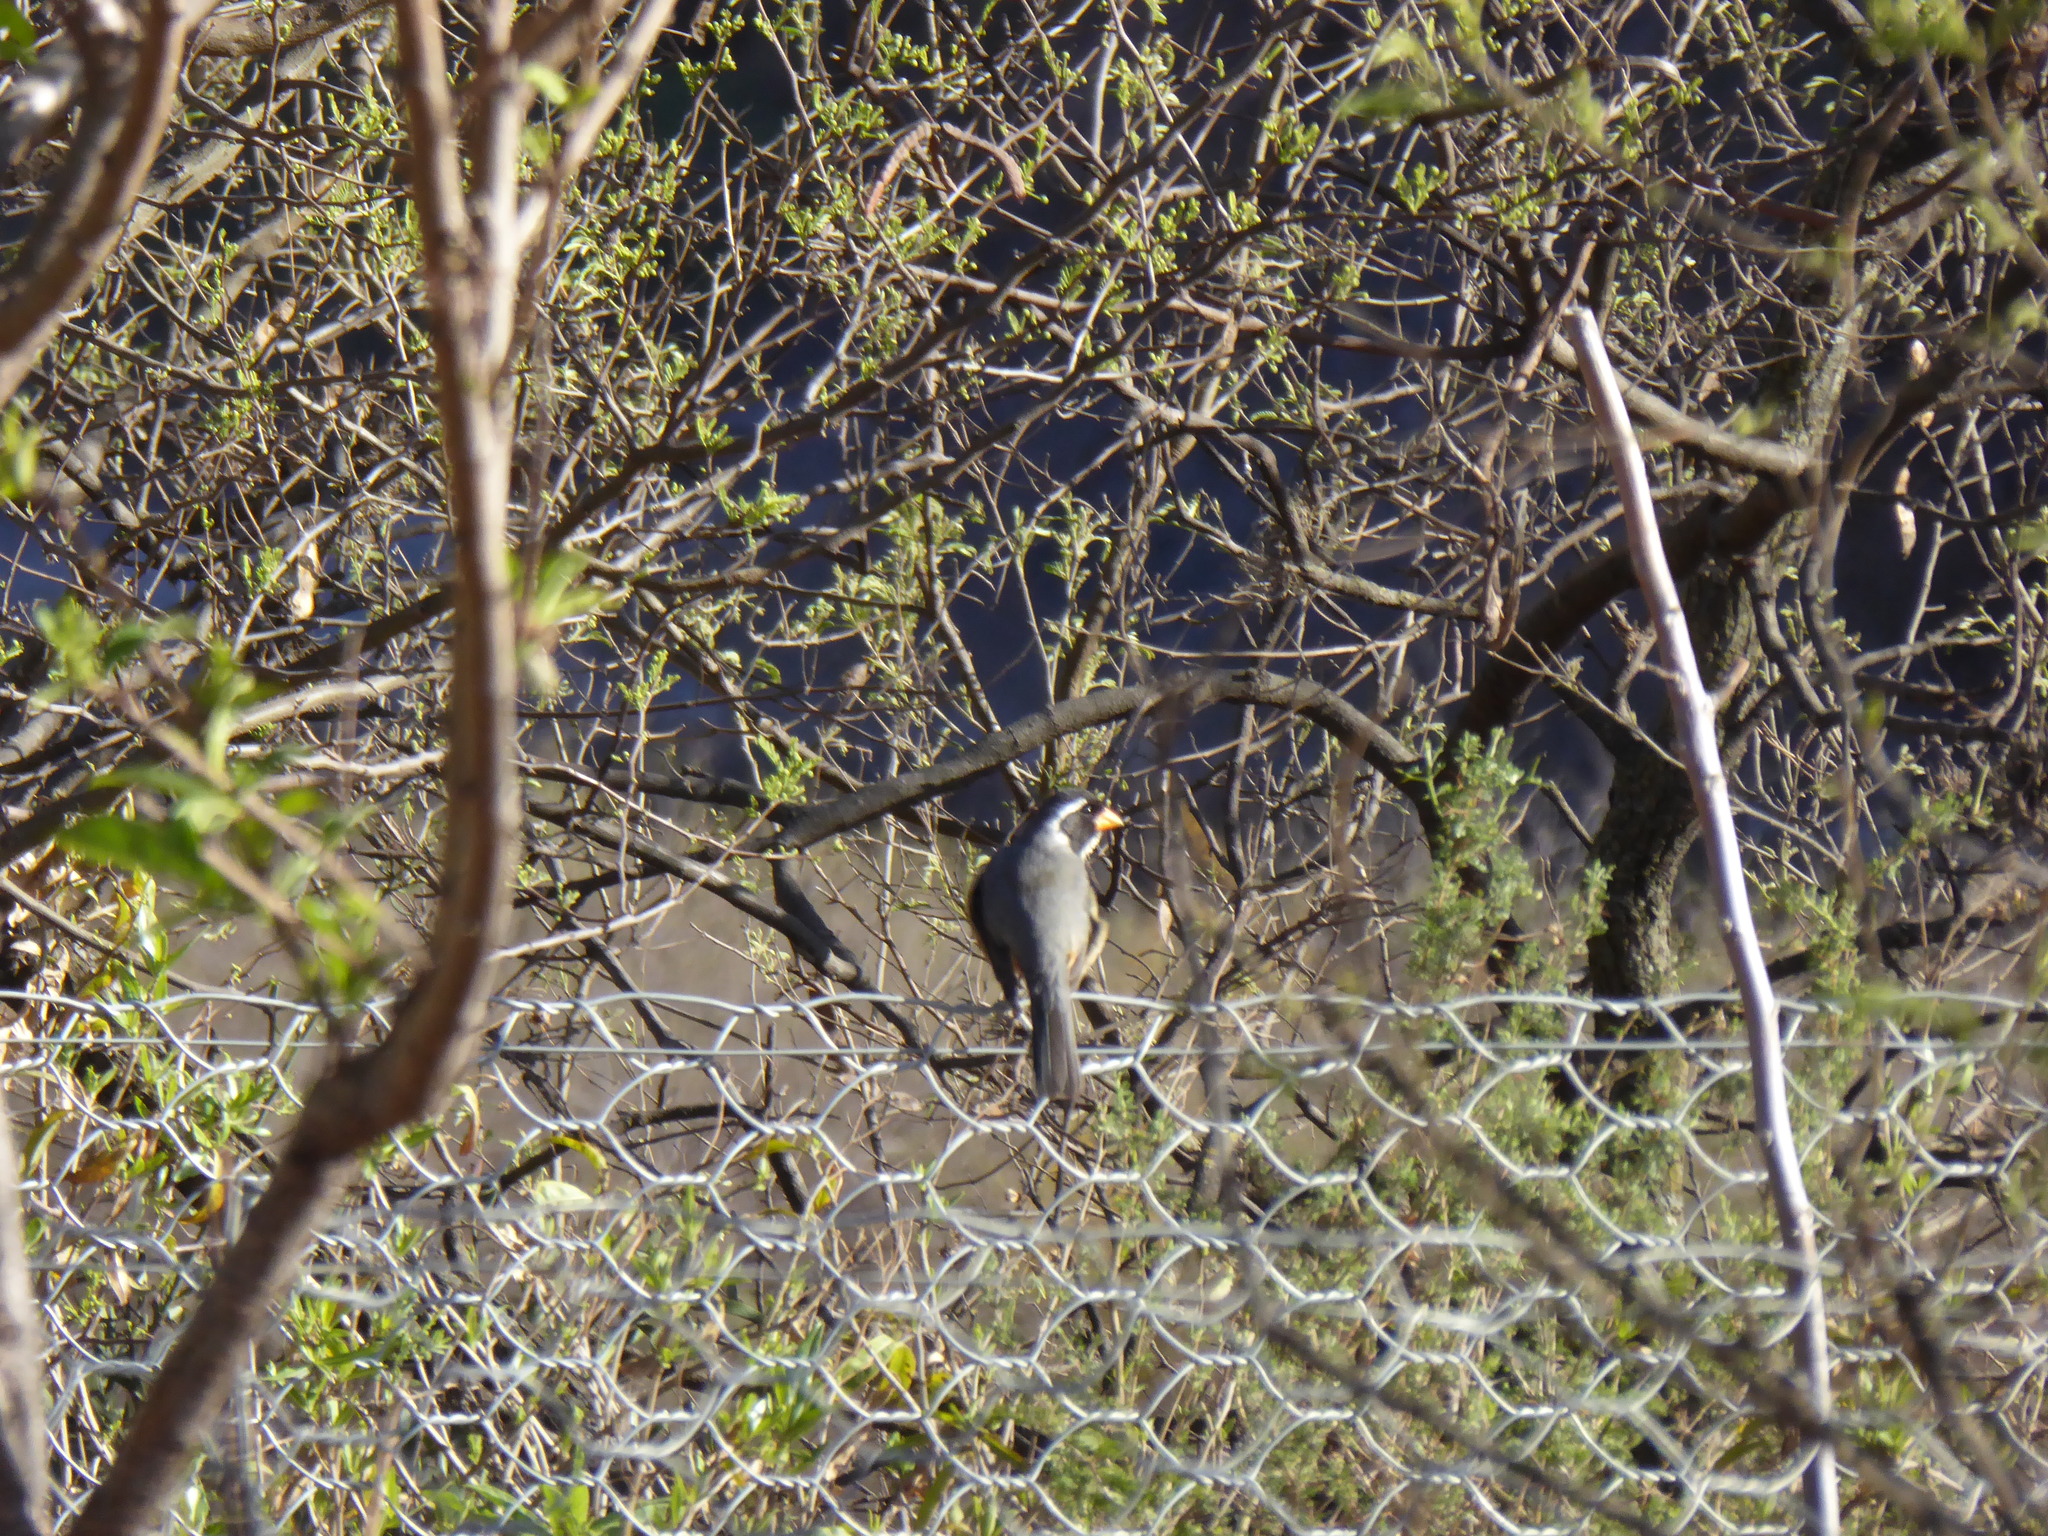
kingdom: Animalia
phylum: Chordata
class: Aves
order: Passeriformes
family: Thraupidae
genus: Saltator
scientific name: Saltator aurantiirostris
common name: Golden-billed saltator
